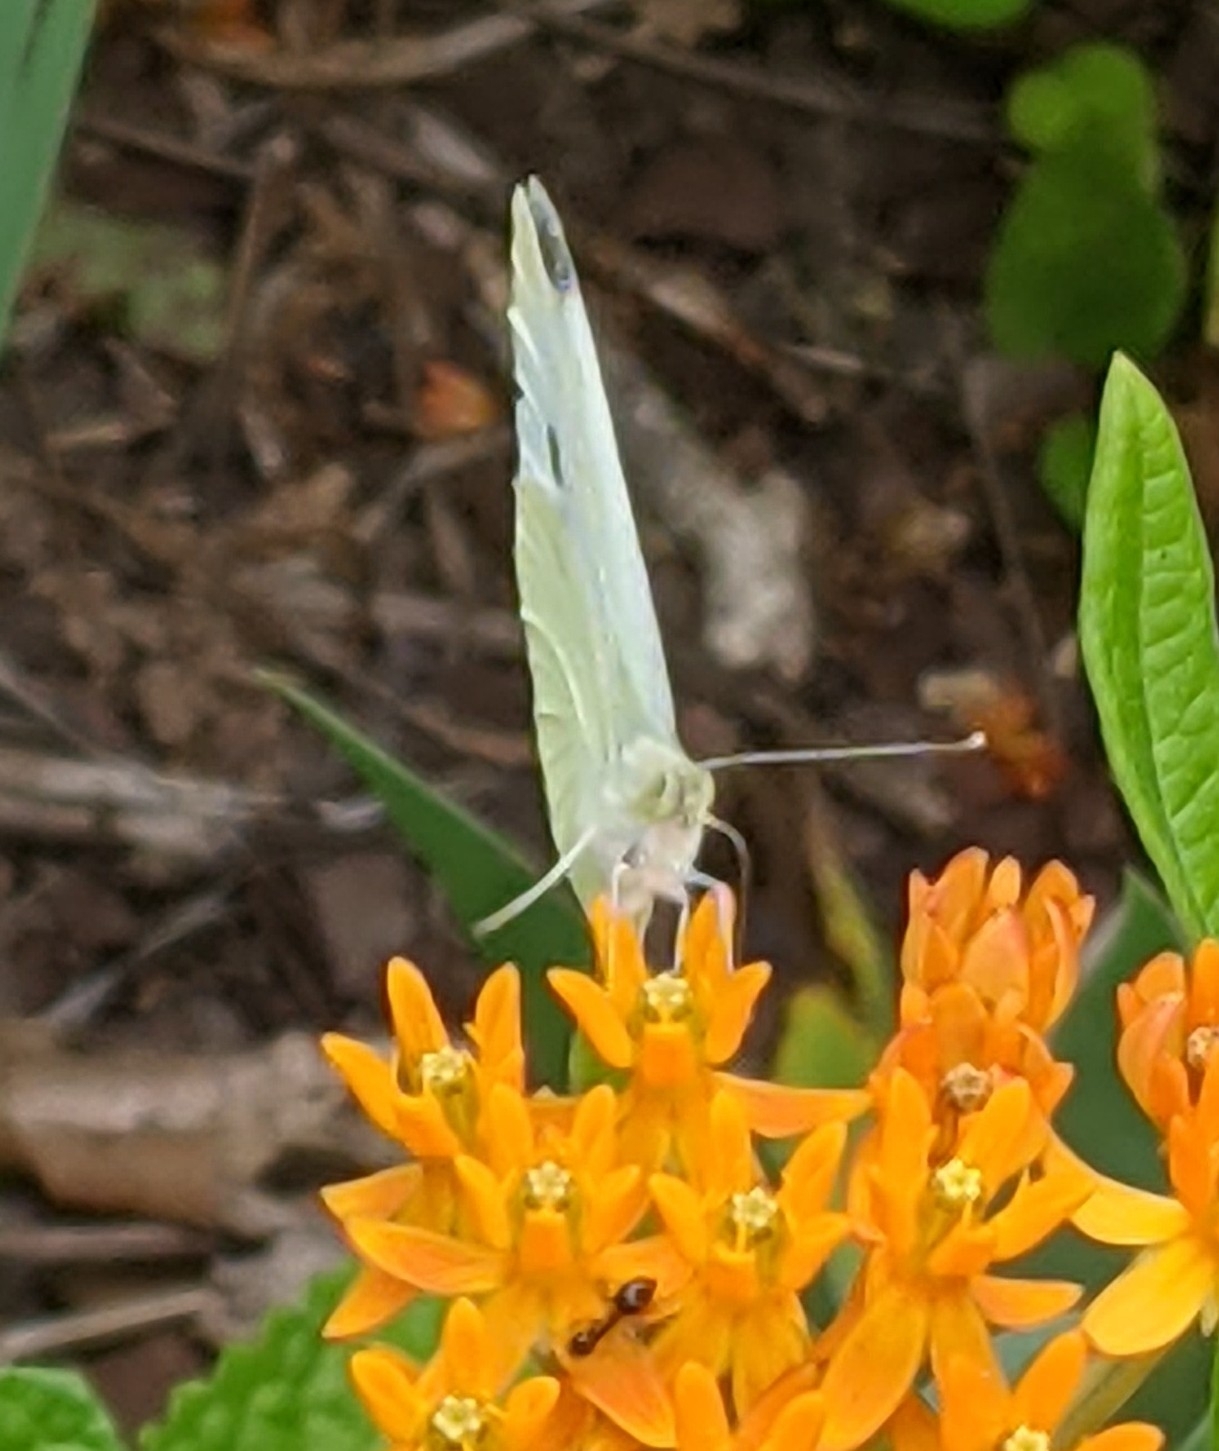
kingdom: Animalia
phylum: Arthropoda
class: Insecta
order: Lepidoptera
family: Pieridae
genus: Pieris
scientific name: Pieris rapae
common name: Small white
